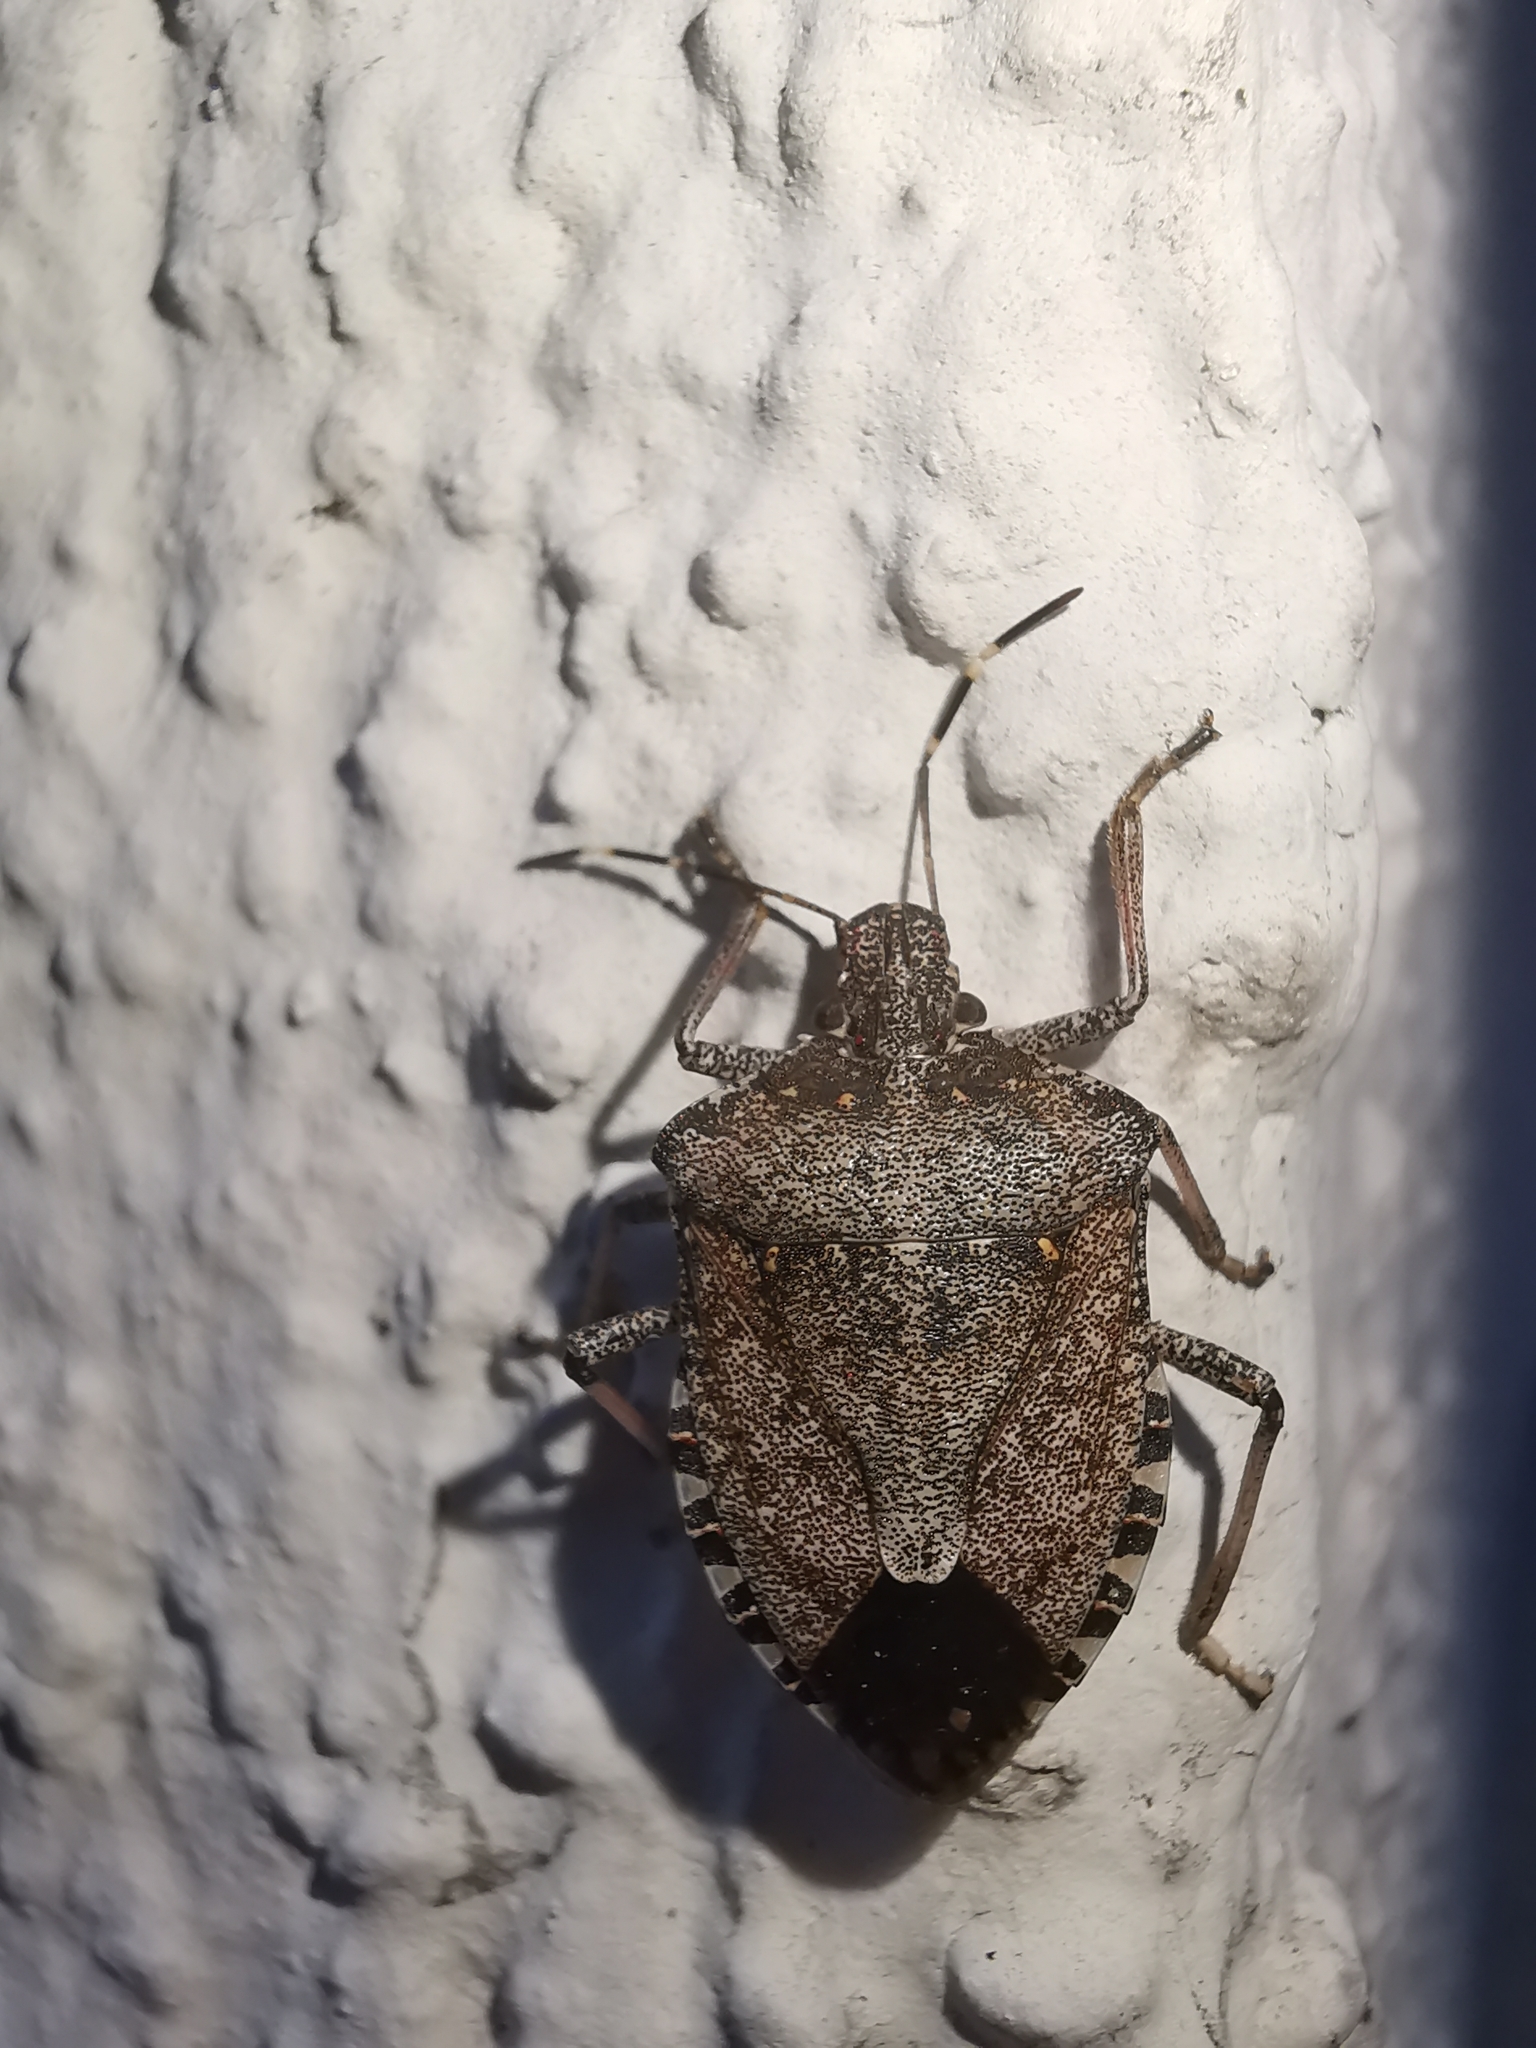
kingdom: Animalia
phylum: Arthropoda
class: Insecta
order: Hemiptera
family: Pentatomidae
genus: Halyomorpha
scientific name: Halyomorpha halys
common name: Brown marmorated stink bug
